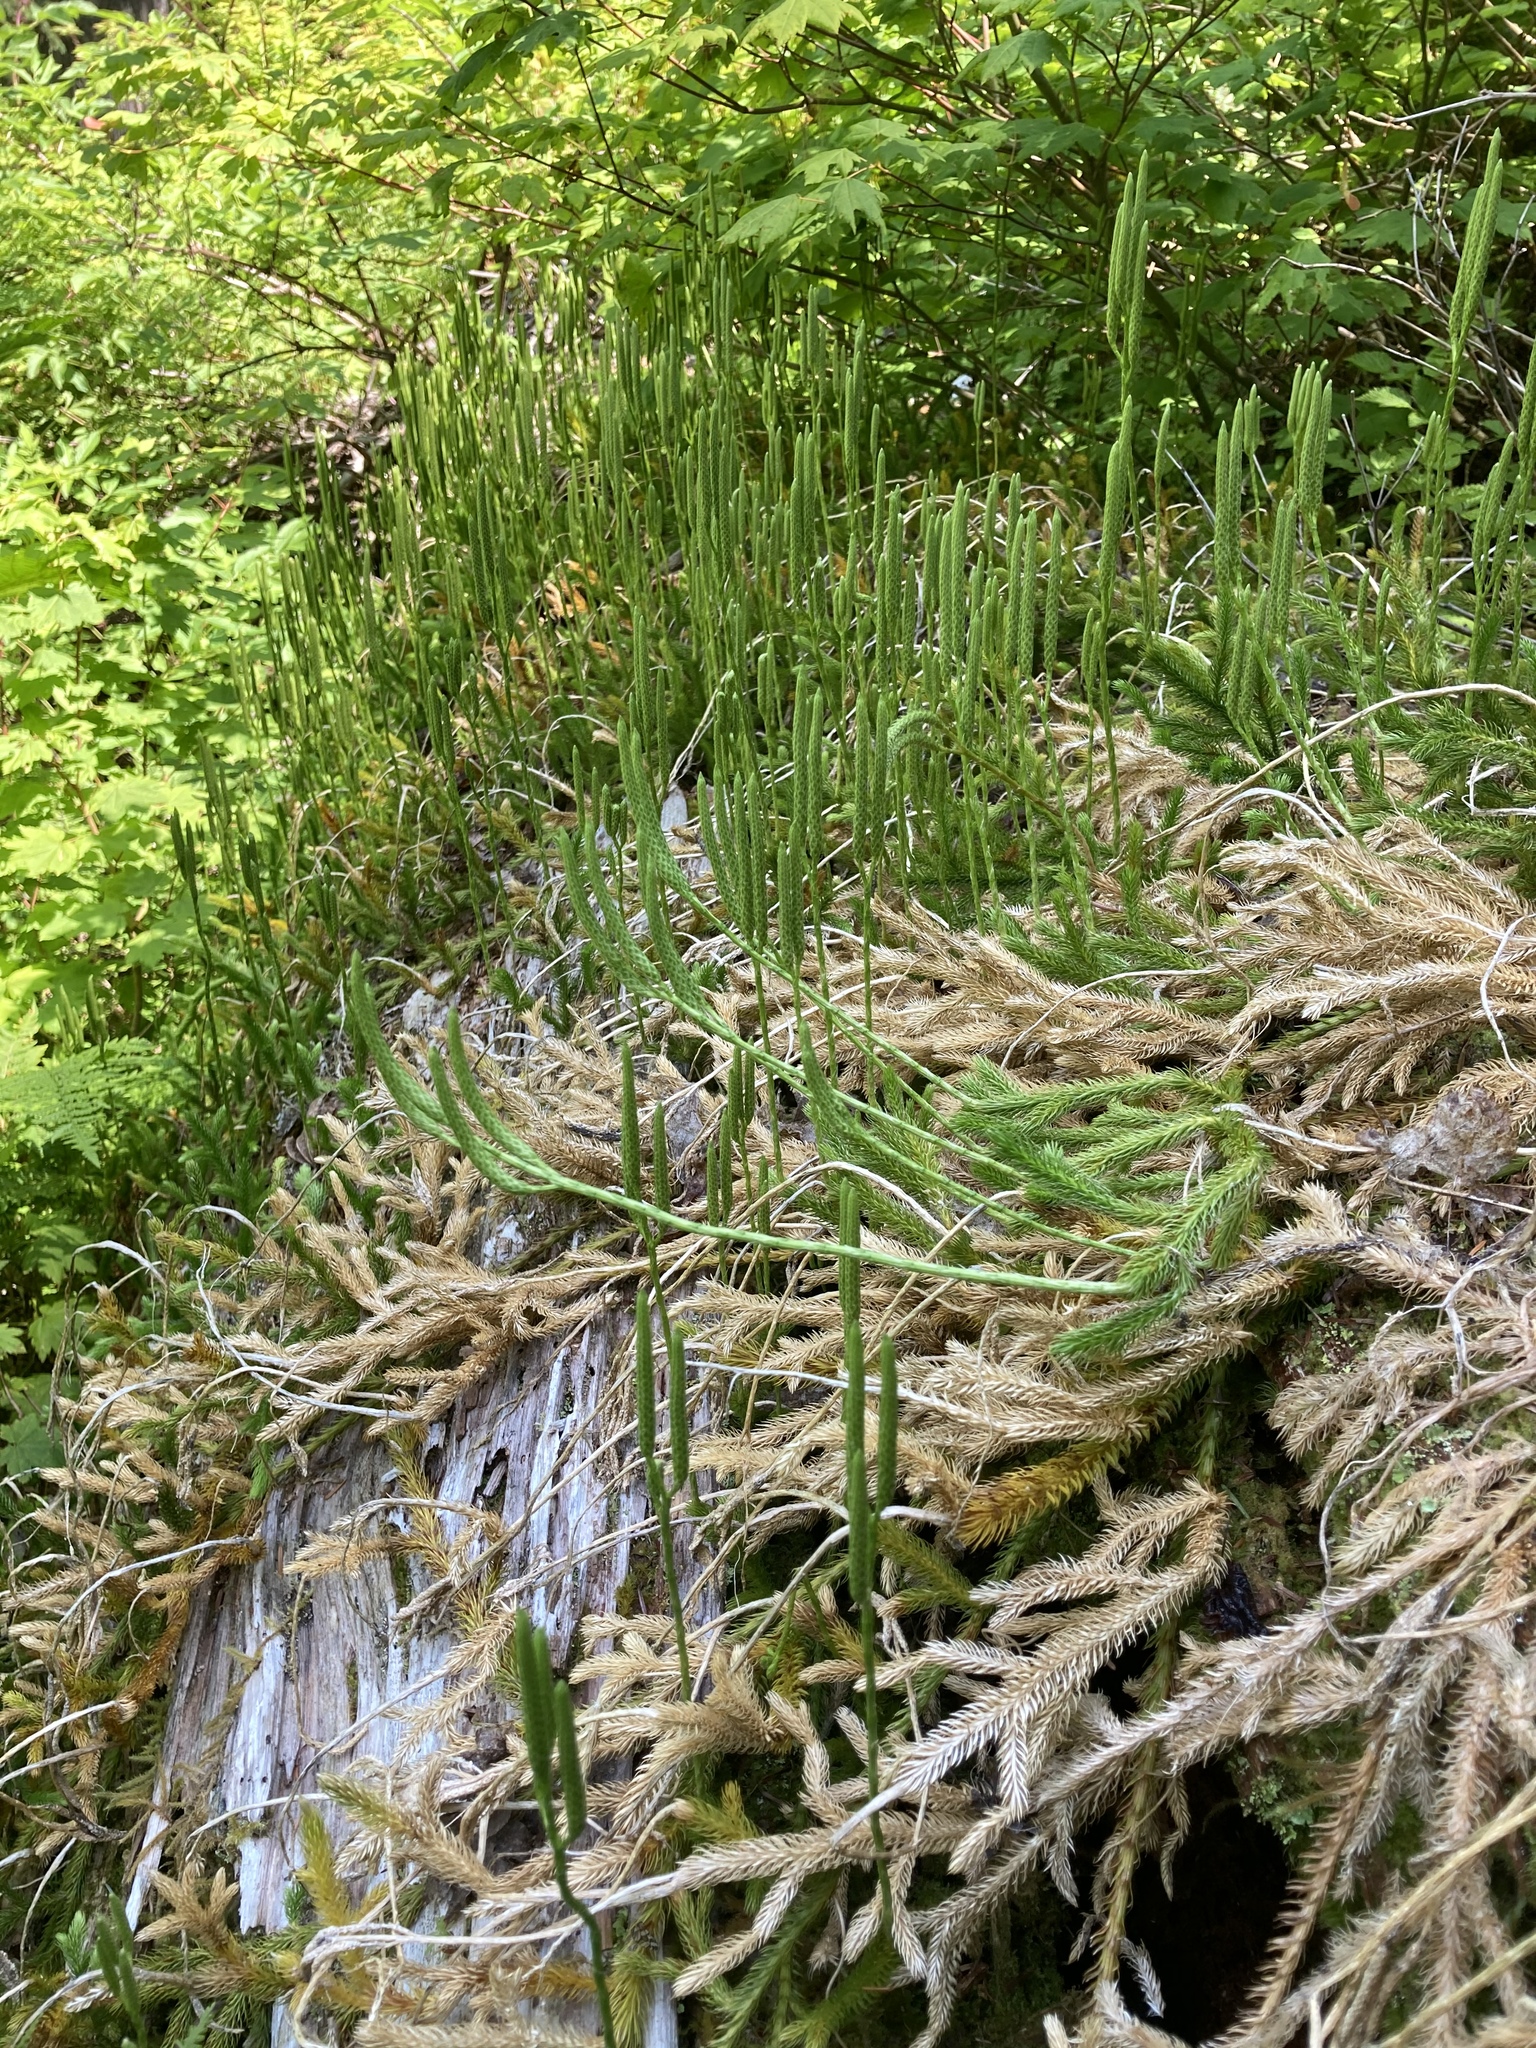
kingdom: Plantae
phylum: Tracheophyta
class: Lycopodiopsida
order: Lycopodiales
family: Lycopodiaceae
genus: Lycopodium
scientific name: Lycopodium clavatum
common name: Stag's-horn clubmoss
